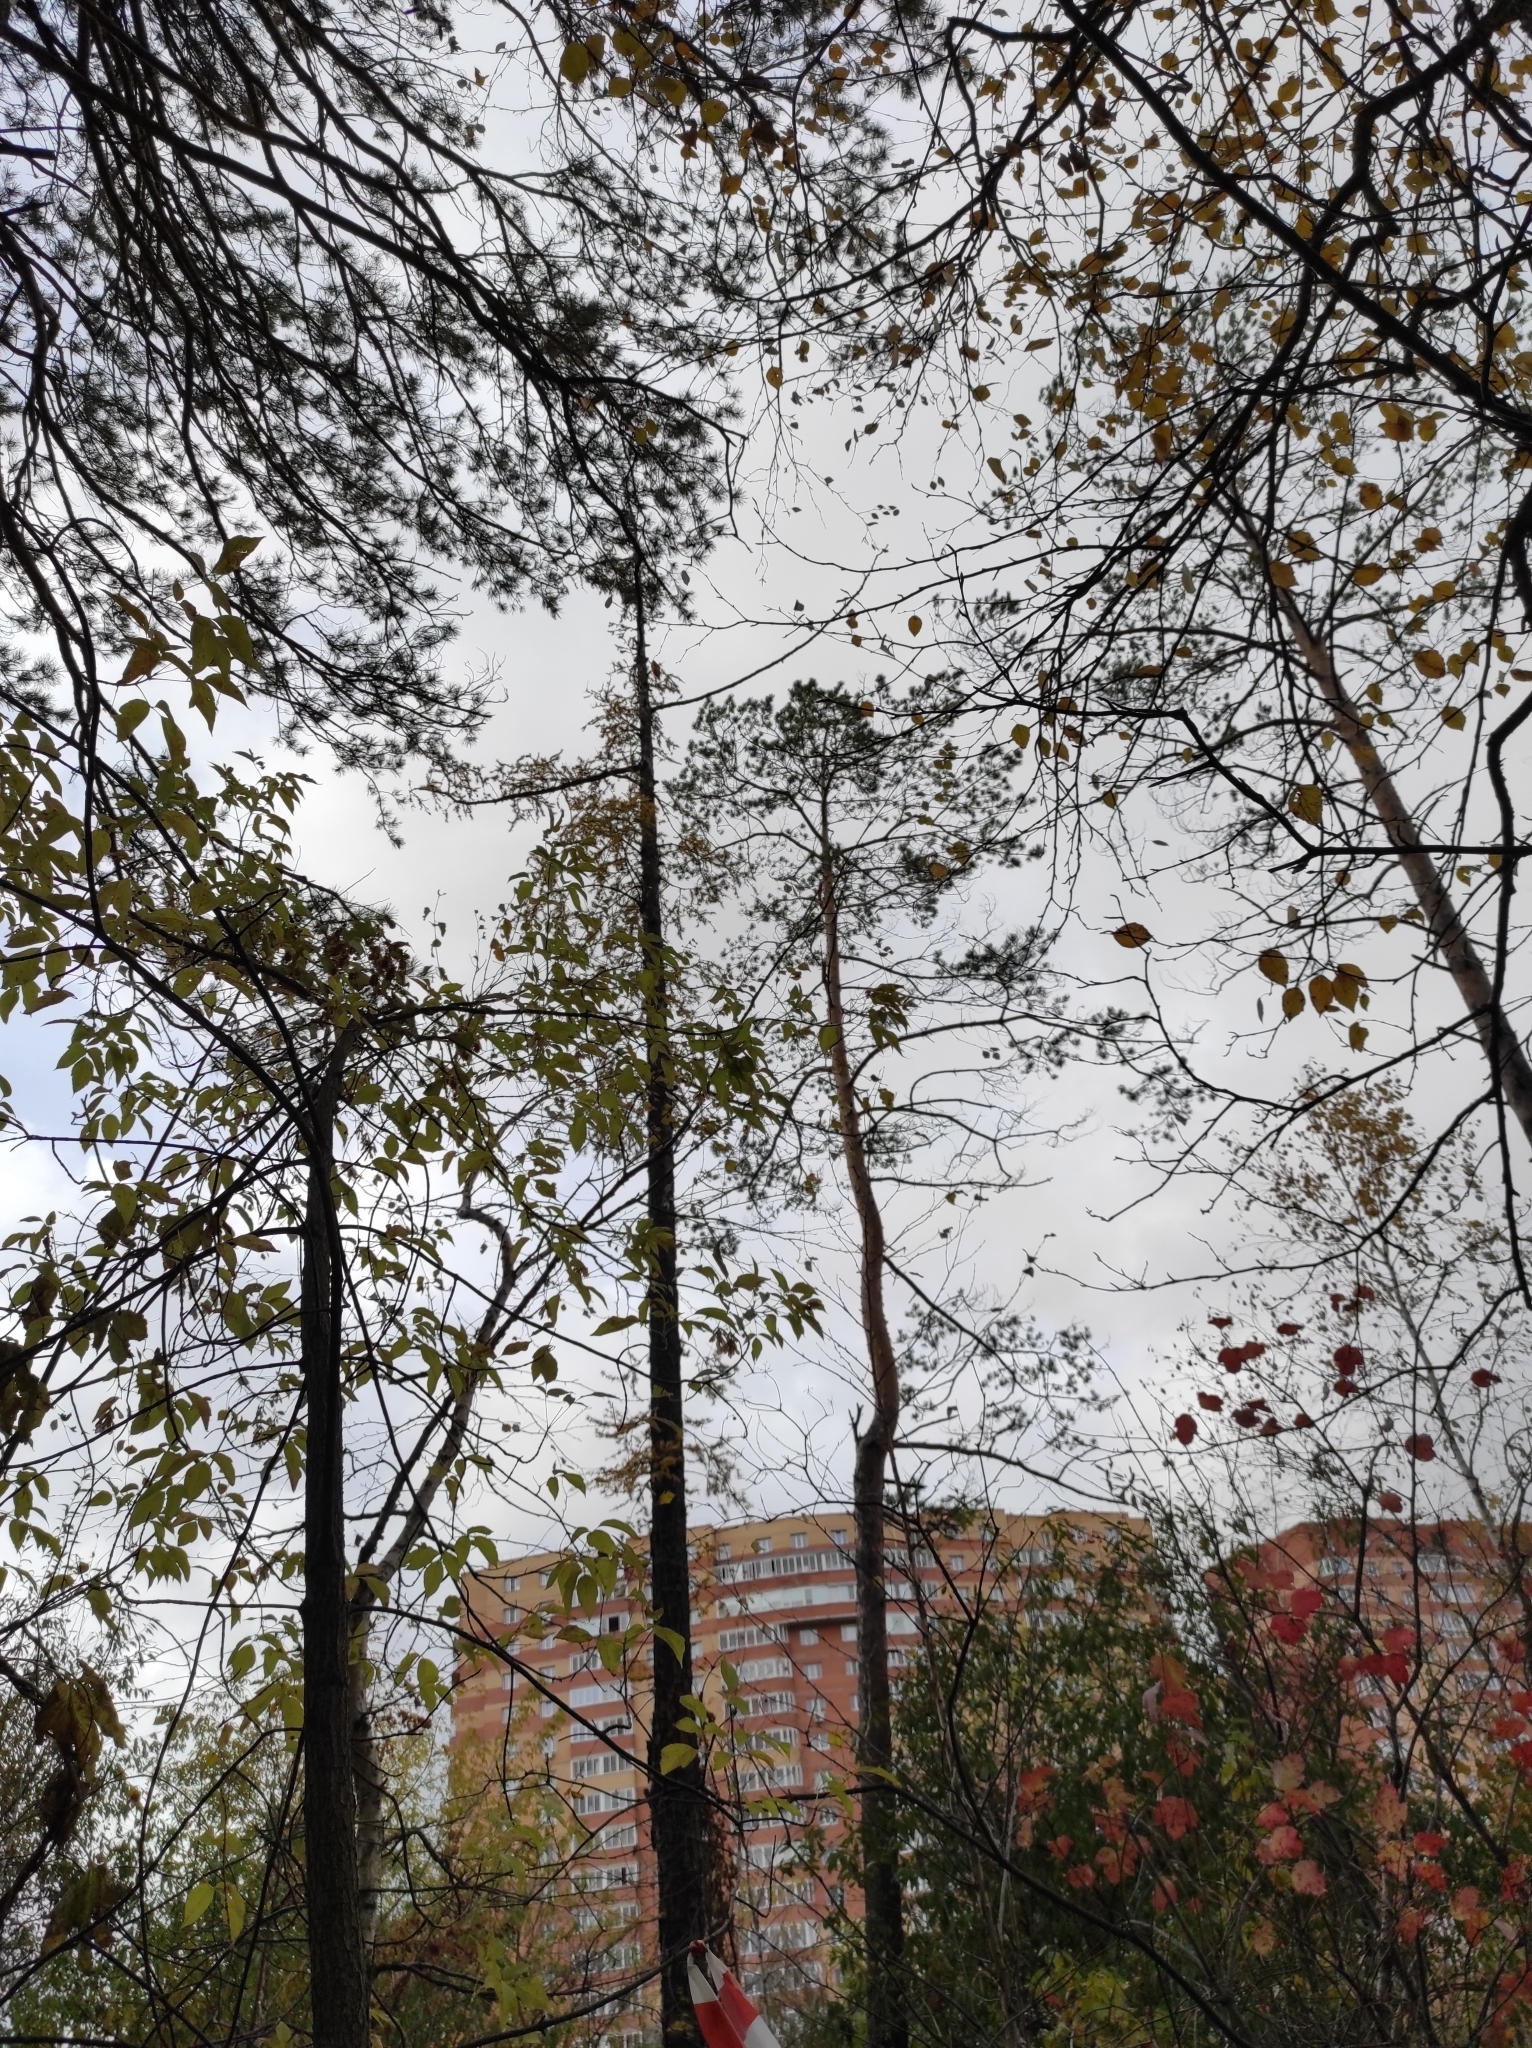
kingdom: Plantae
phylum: Tracheophyta
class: Pinopsida
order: Pinales
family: Pinaceae
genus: Larix
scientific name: Larix sibirica
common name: Siberian larch
